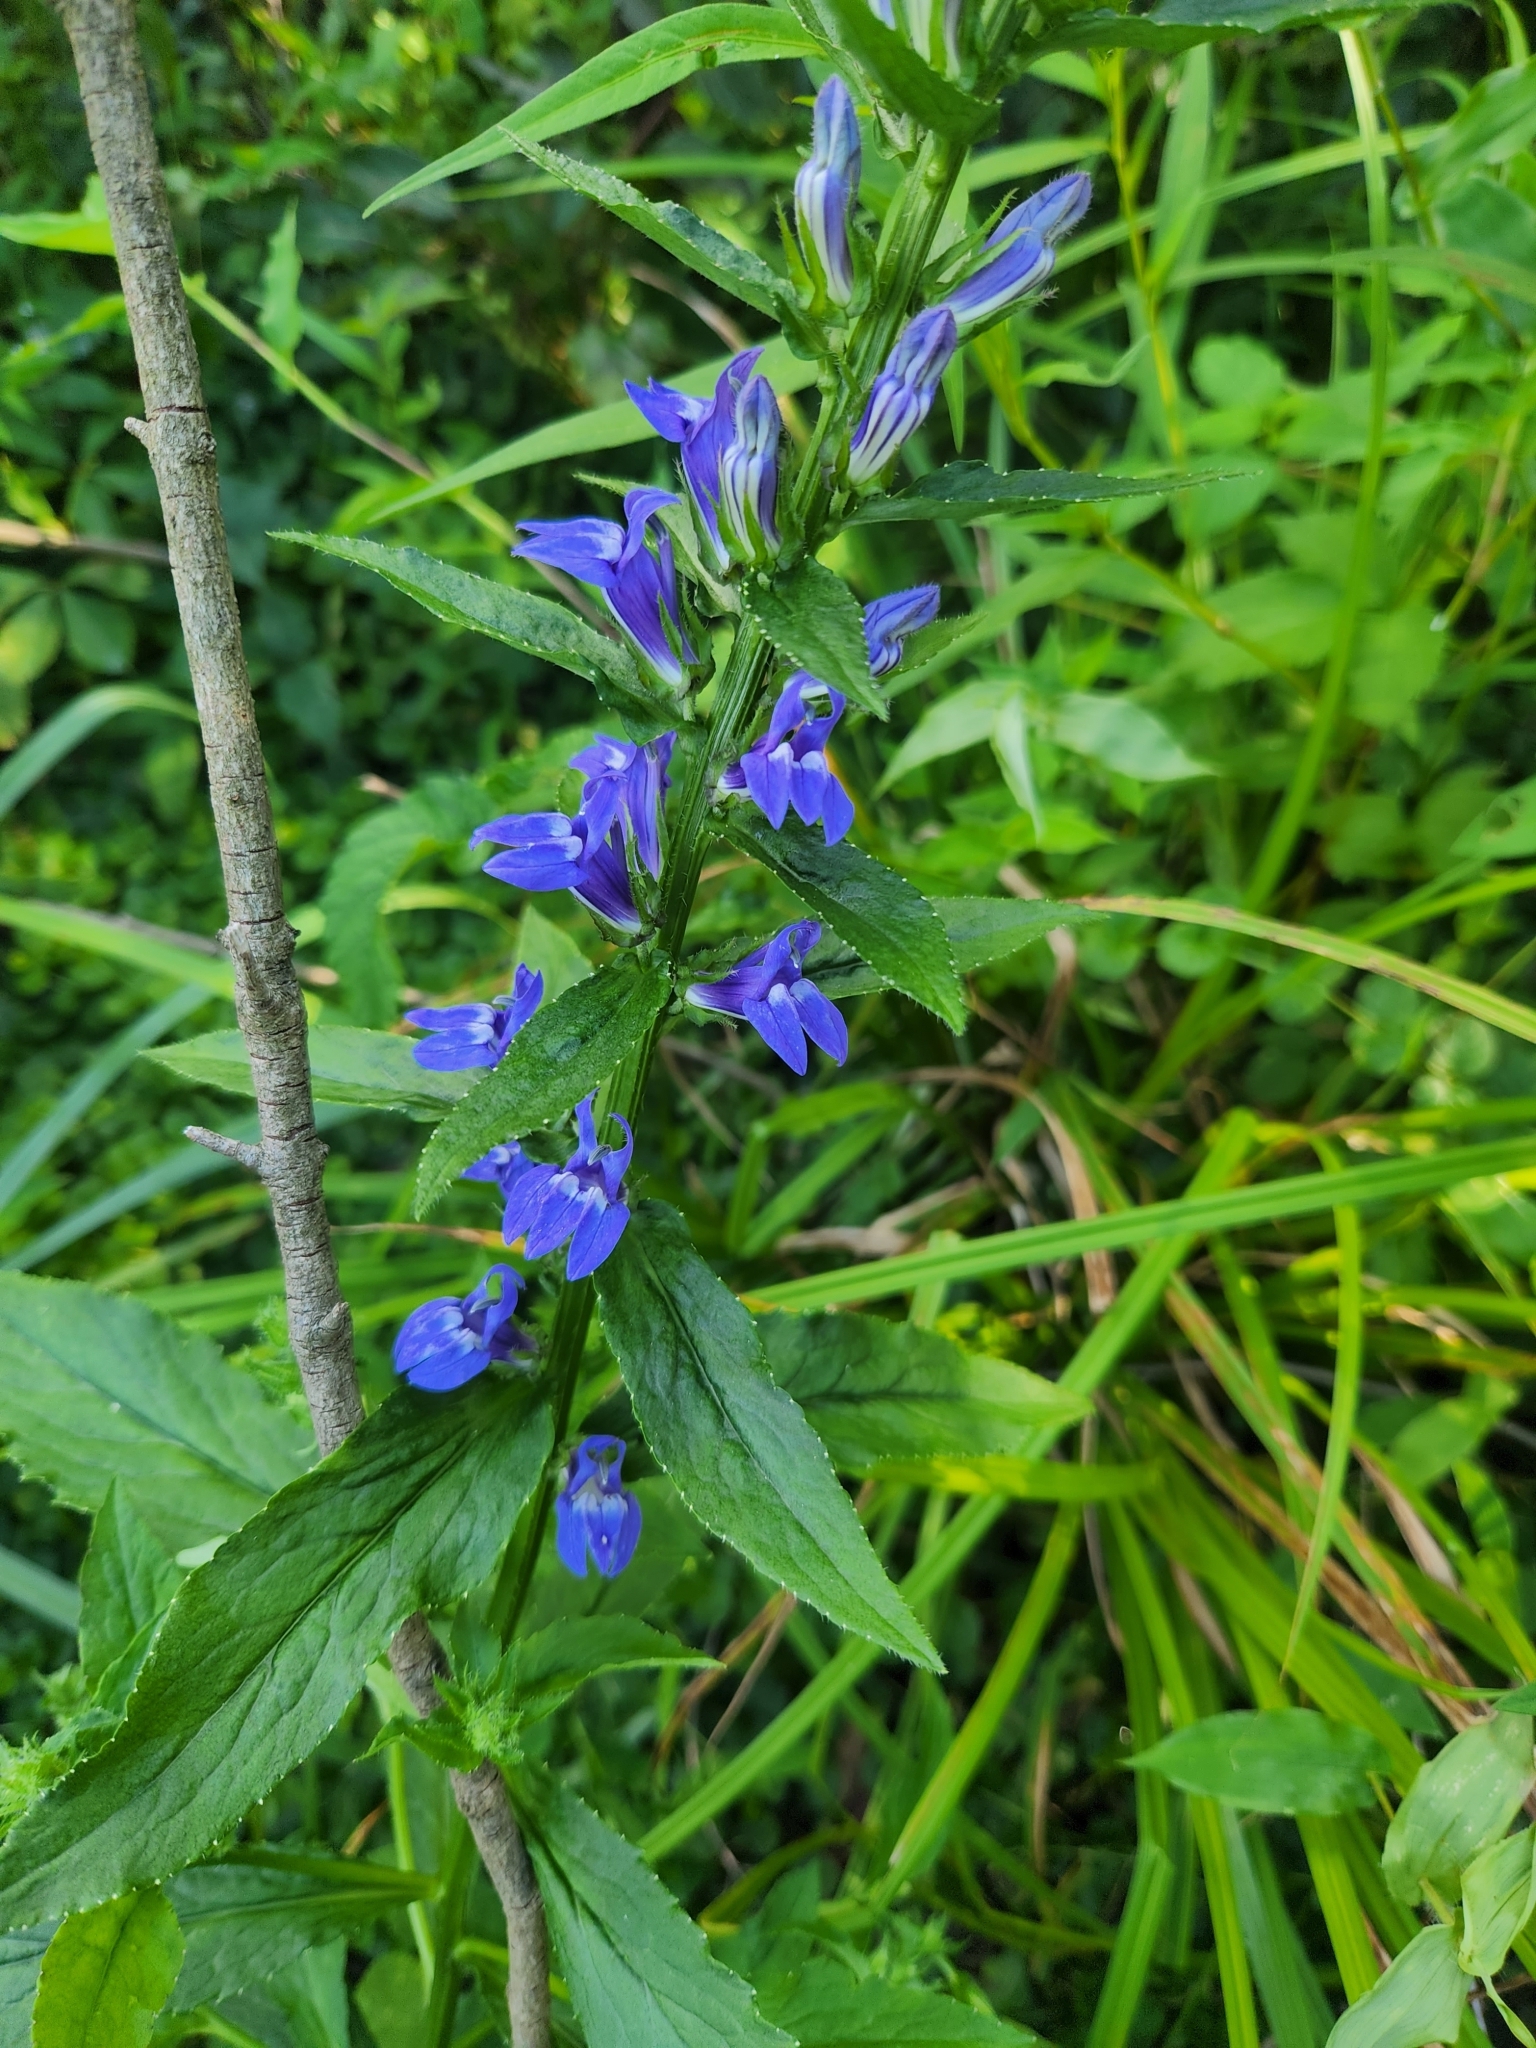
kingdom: Plantae
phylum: Tracheophyta
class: Magnoliopsida
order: Asterales
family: Campanulaceae
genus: Lobelia
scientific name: Lobelia siphilitica
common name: Great lobelia
